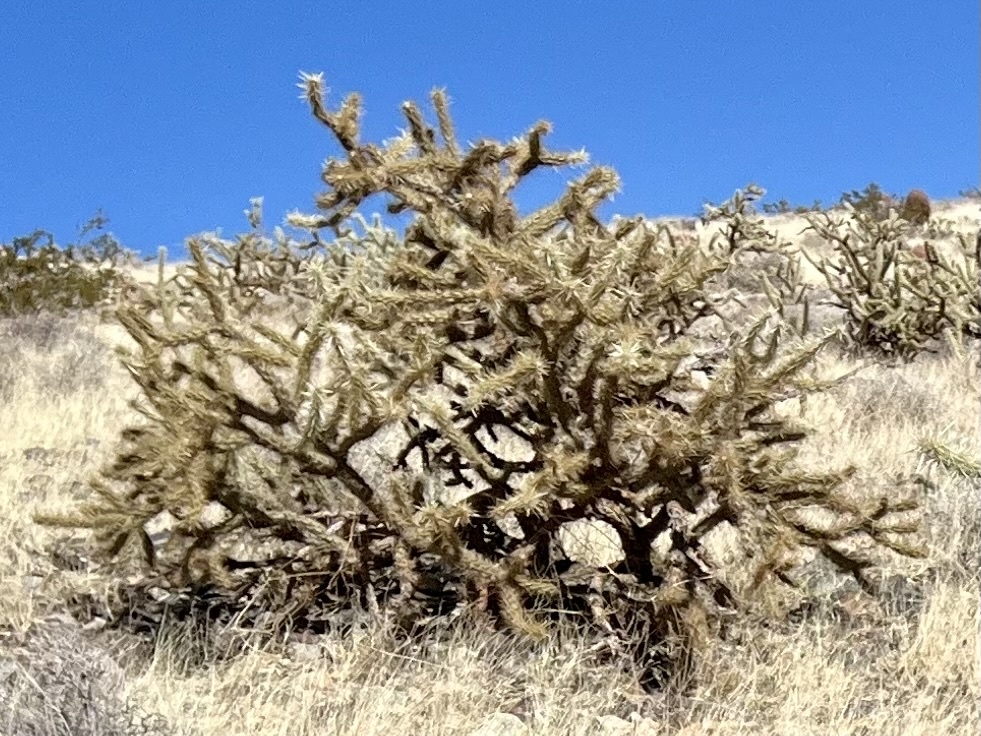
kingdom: Plantae
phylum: Tracheophyta
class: Magnoliopsida
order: Caryophyllales
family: Cactaceae
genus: Cylindropuntia
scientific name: Cylindropuntia acanthocarpa
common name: Buckhorn cholla
